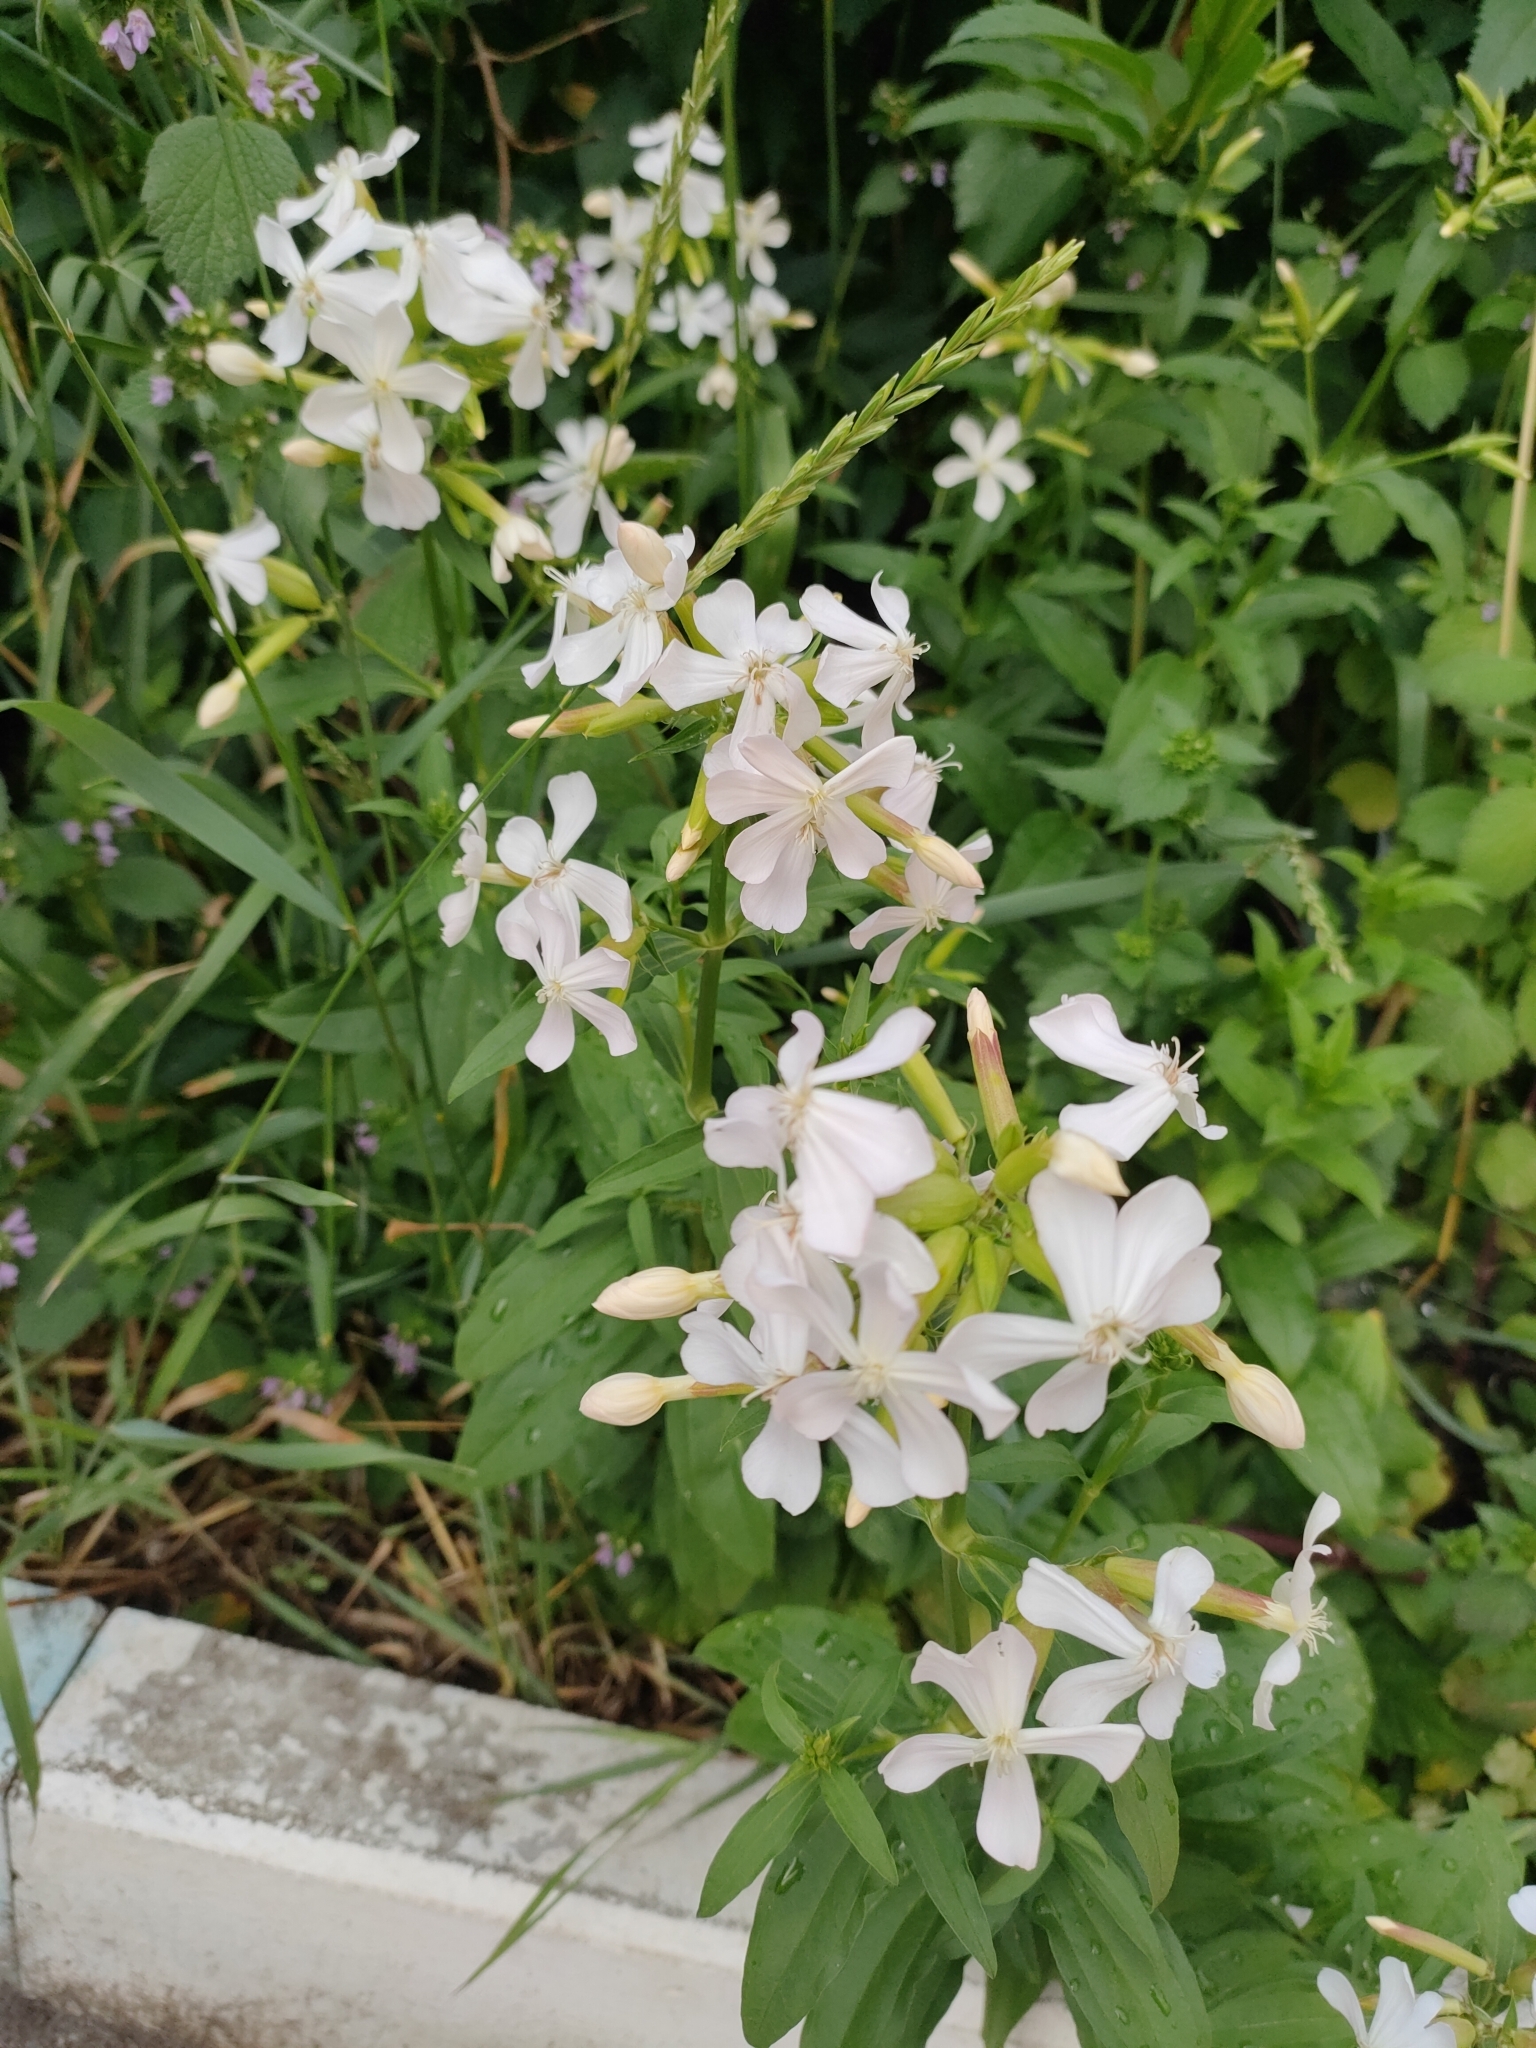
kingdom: Plantae
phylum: Tracheophyta
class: Magnoliopsida
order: Caryophyllales
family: Caryophyllaceae
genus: Saponaria
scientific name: Saponaria officinalis
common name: Soapwort
